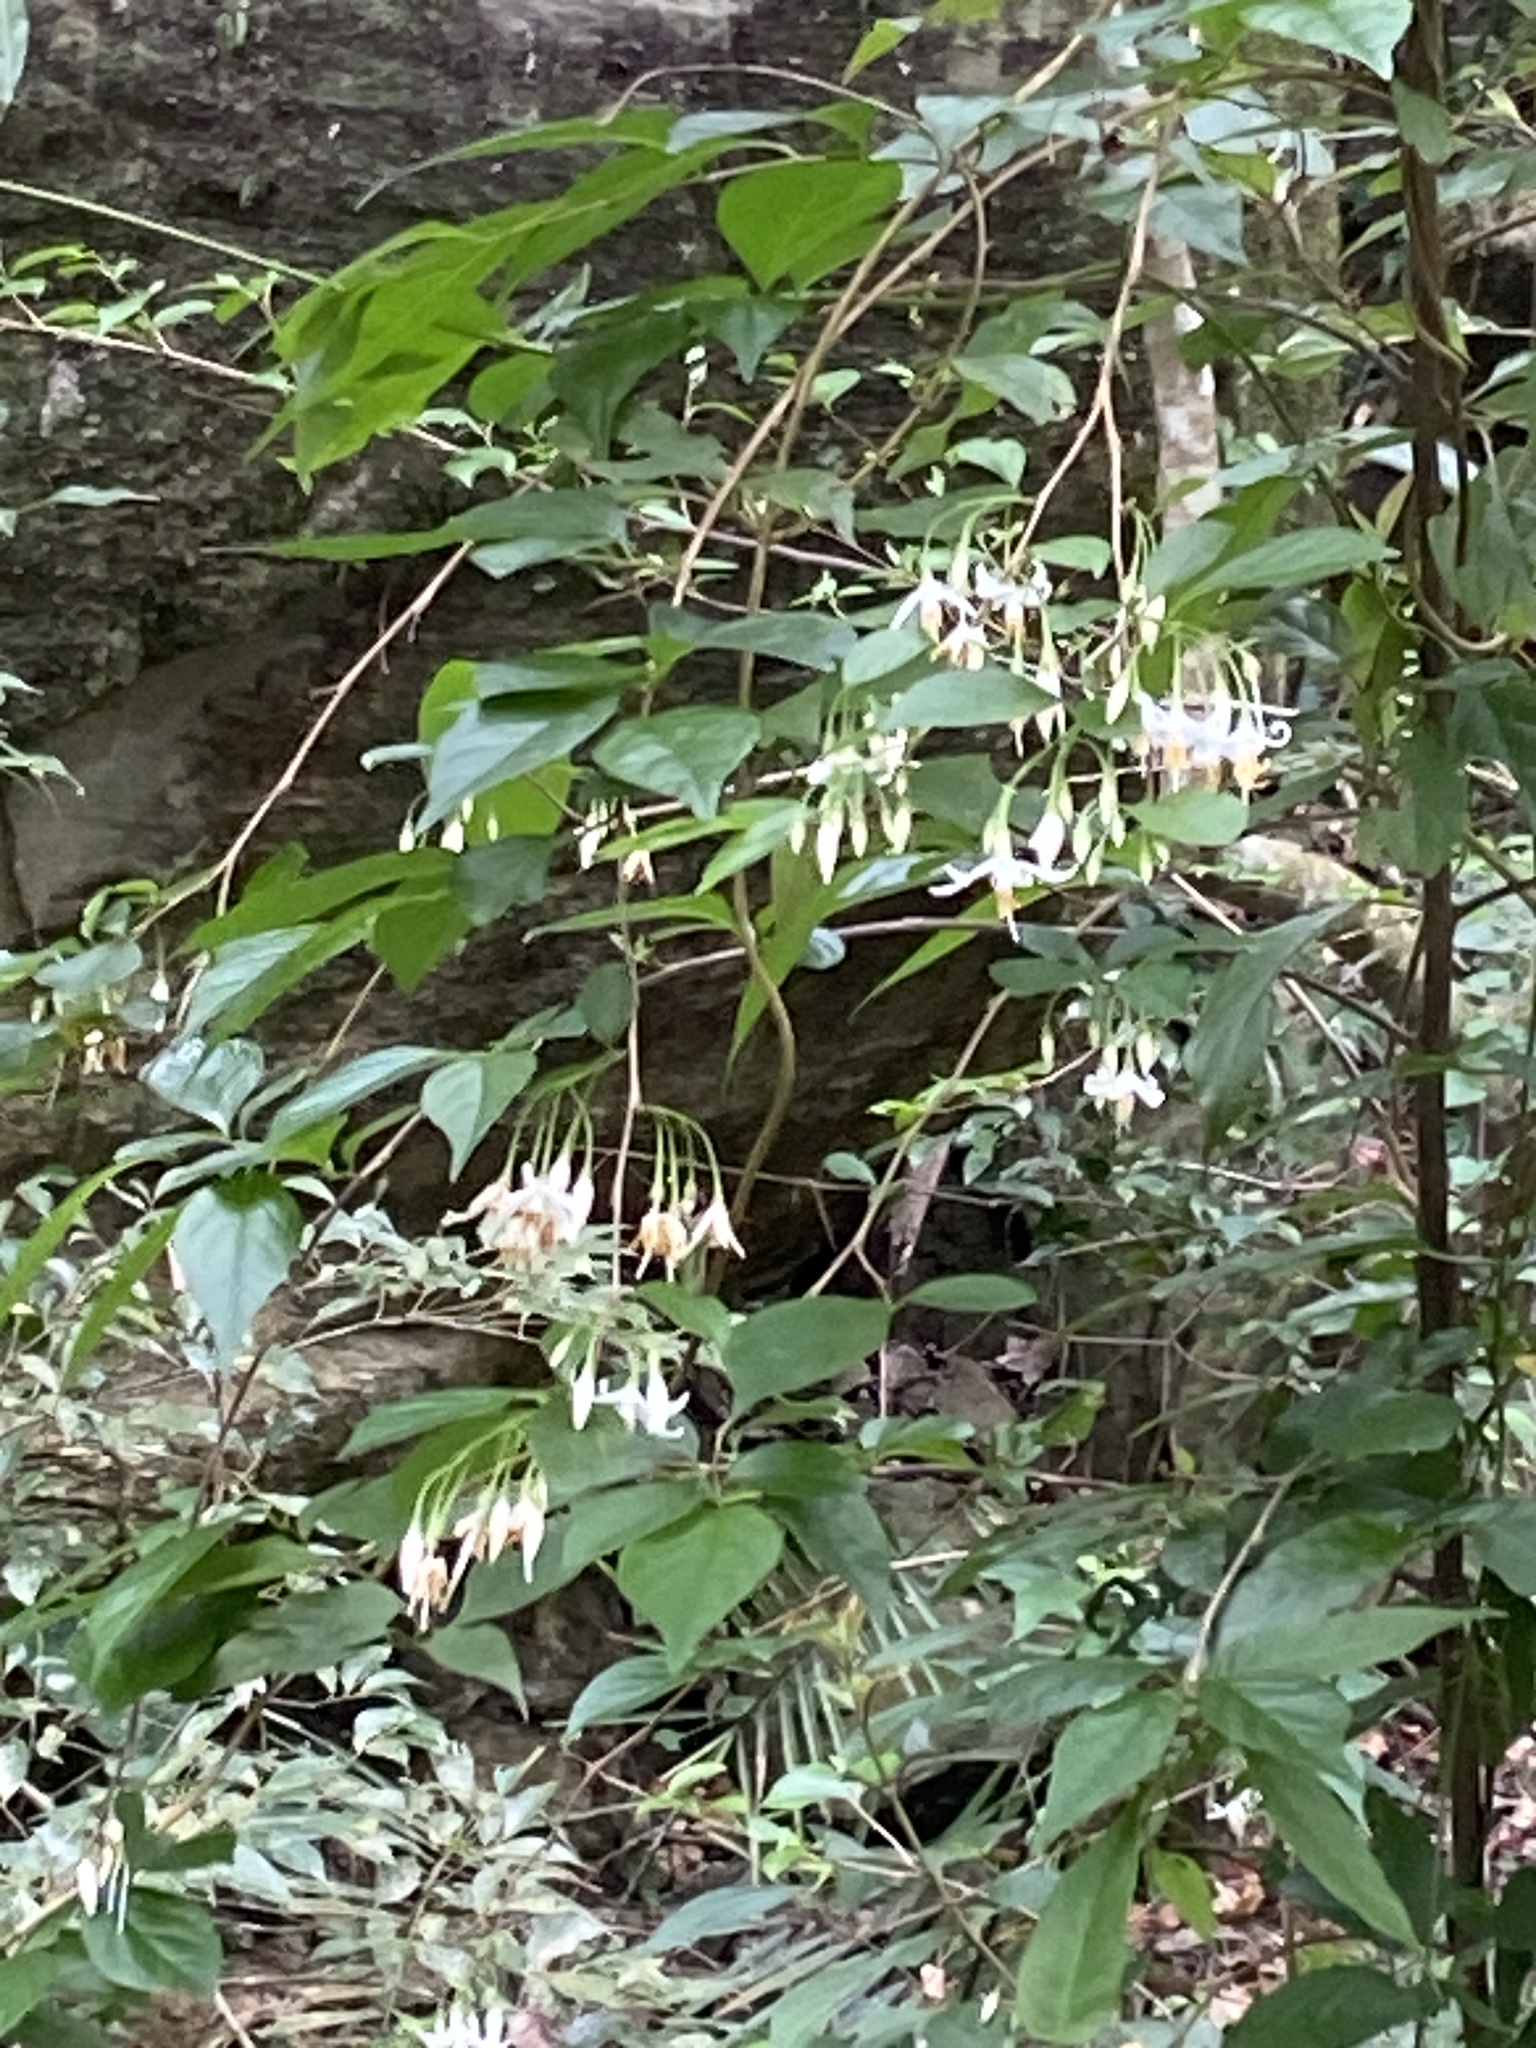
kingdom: Plantae
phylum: Tracheophyta
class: Magnoliopsida
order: Ericales
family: Styracaceae
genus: Styrax
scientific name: Styrax formosanus
